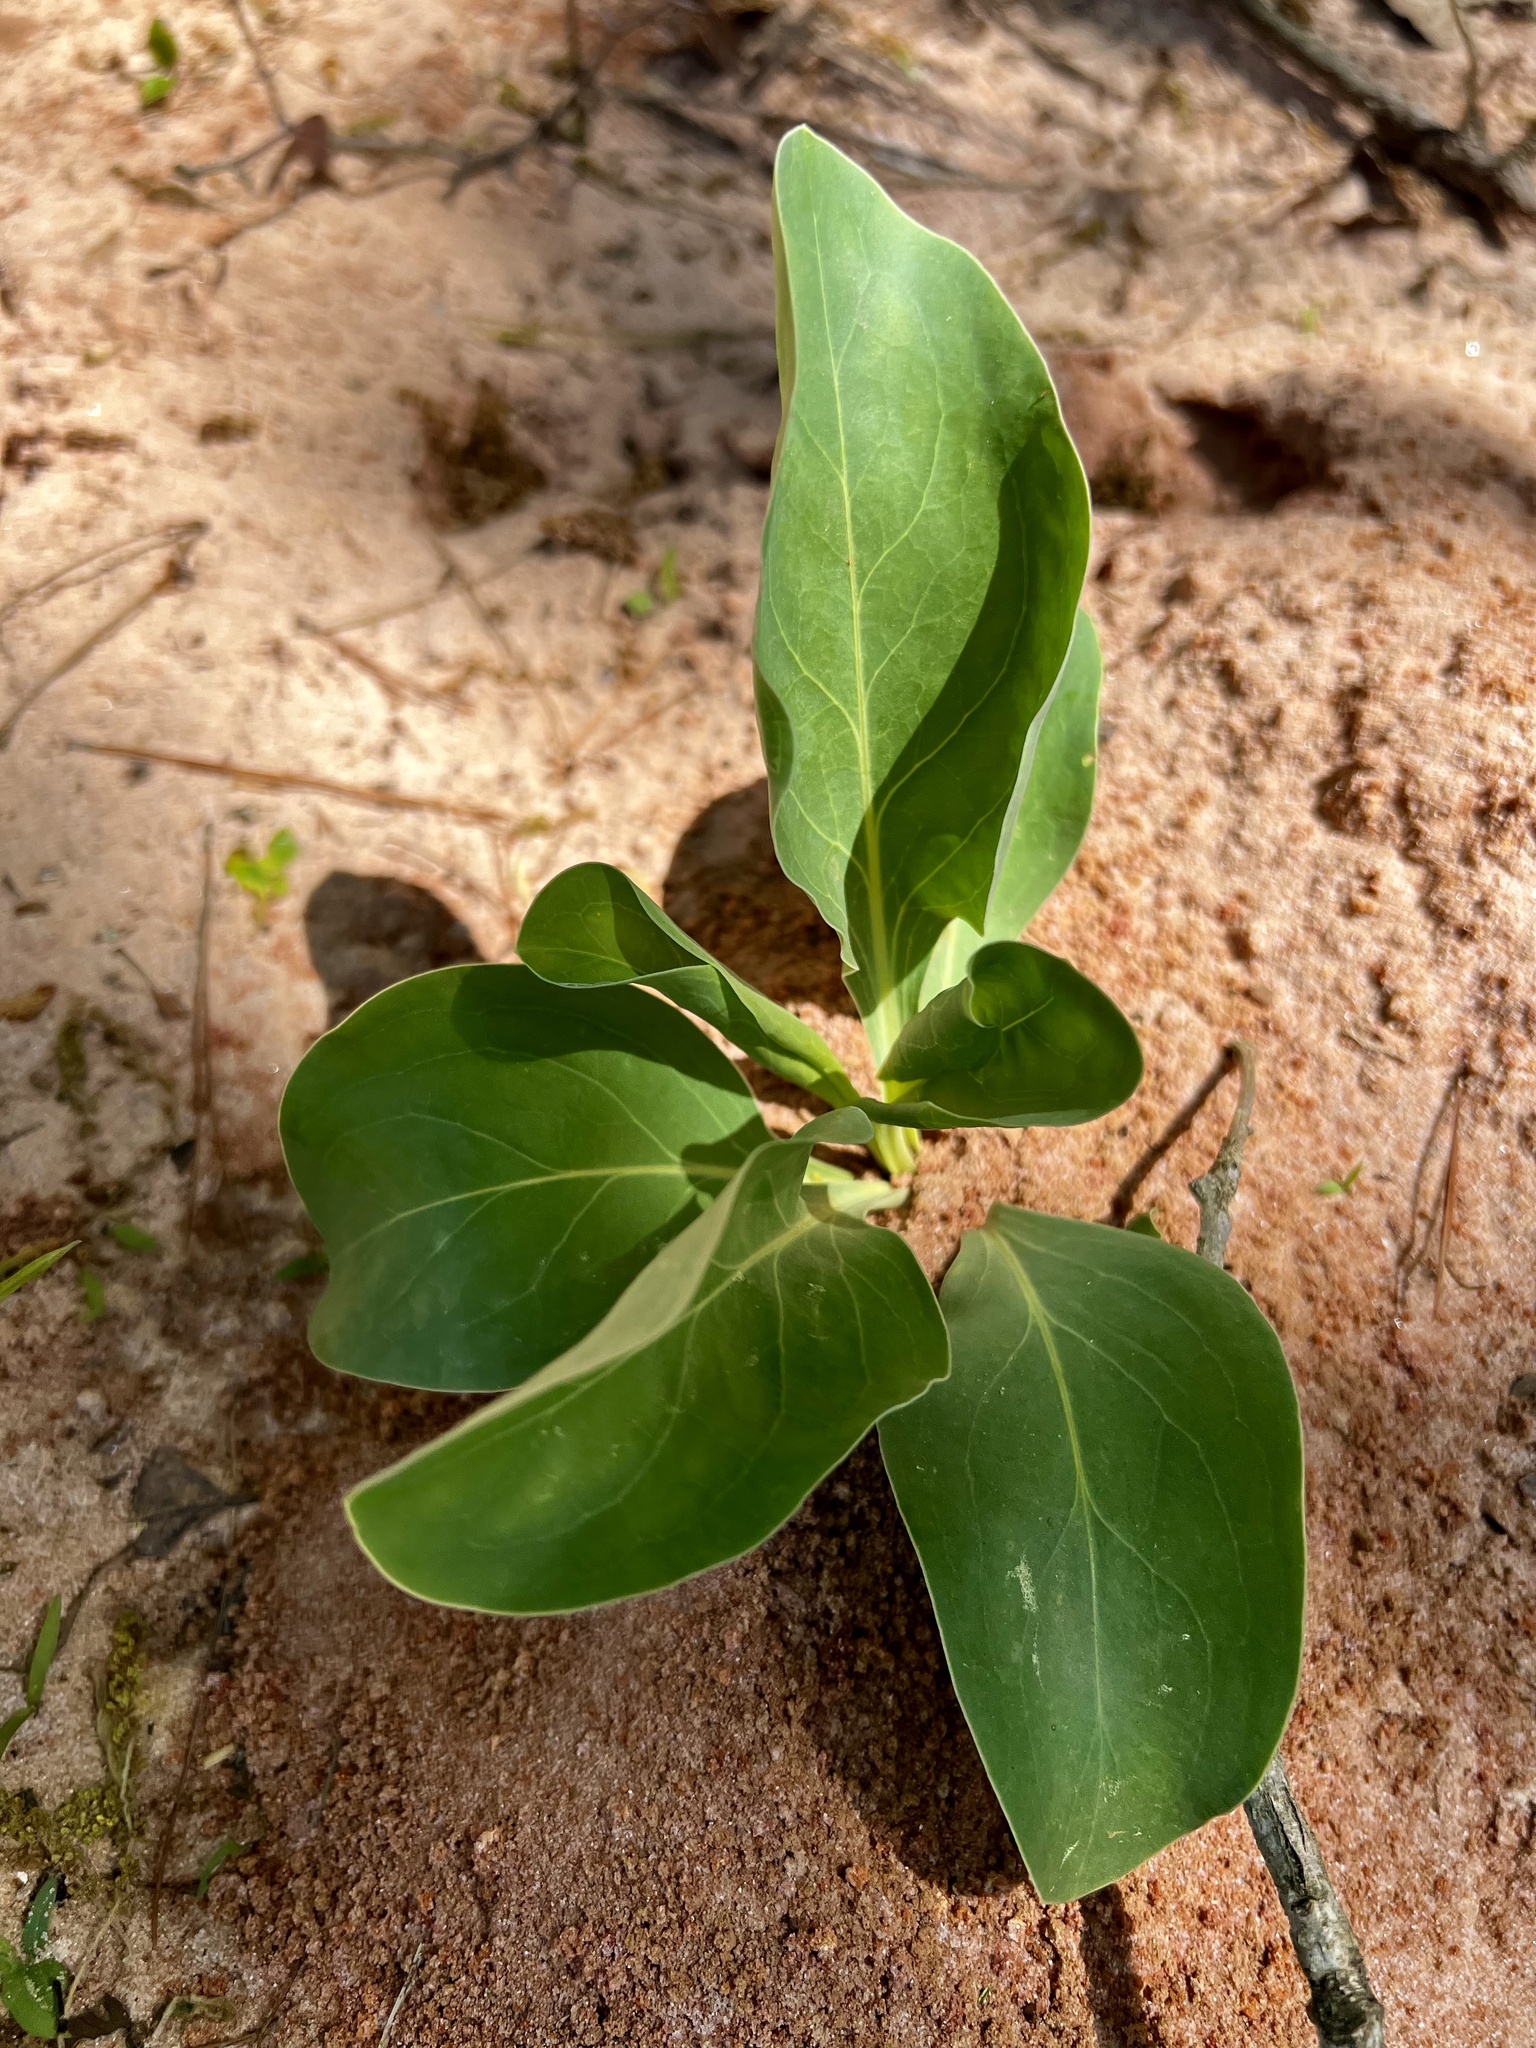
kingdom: Plantae
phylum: Tracheophyta
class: Magnoliopsida
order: Lamiales
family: Plantaginaceae
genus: Penstemon
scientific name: Penstemon murrayanus
